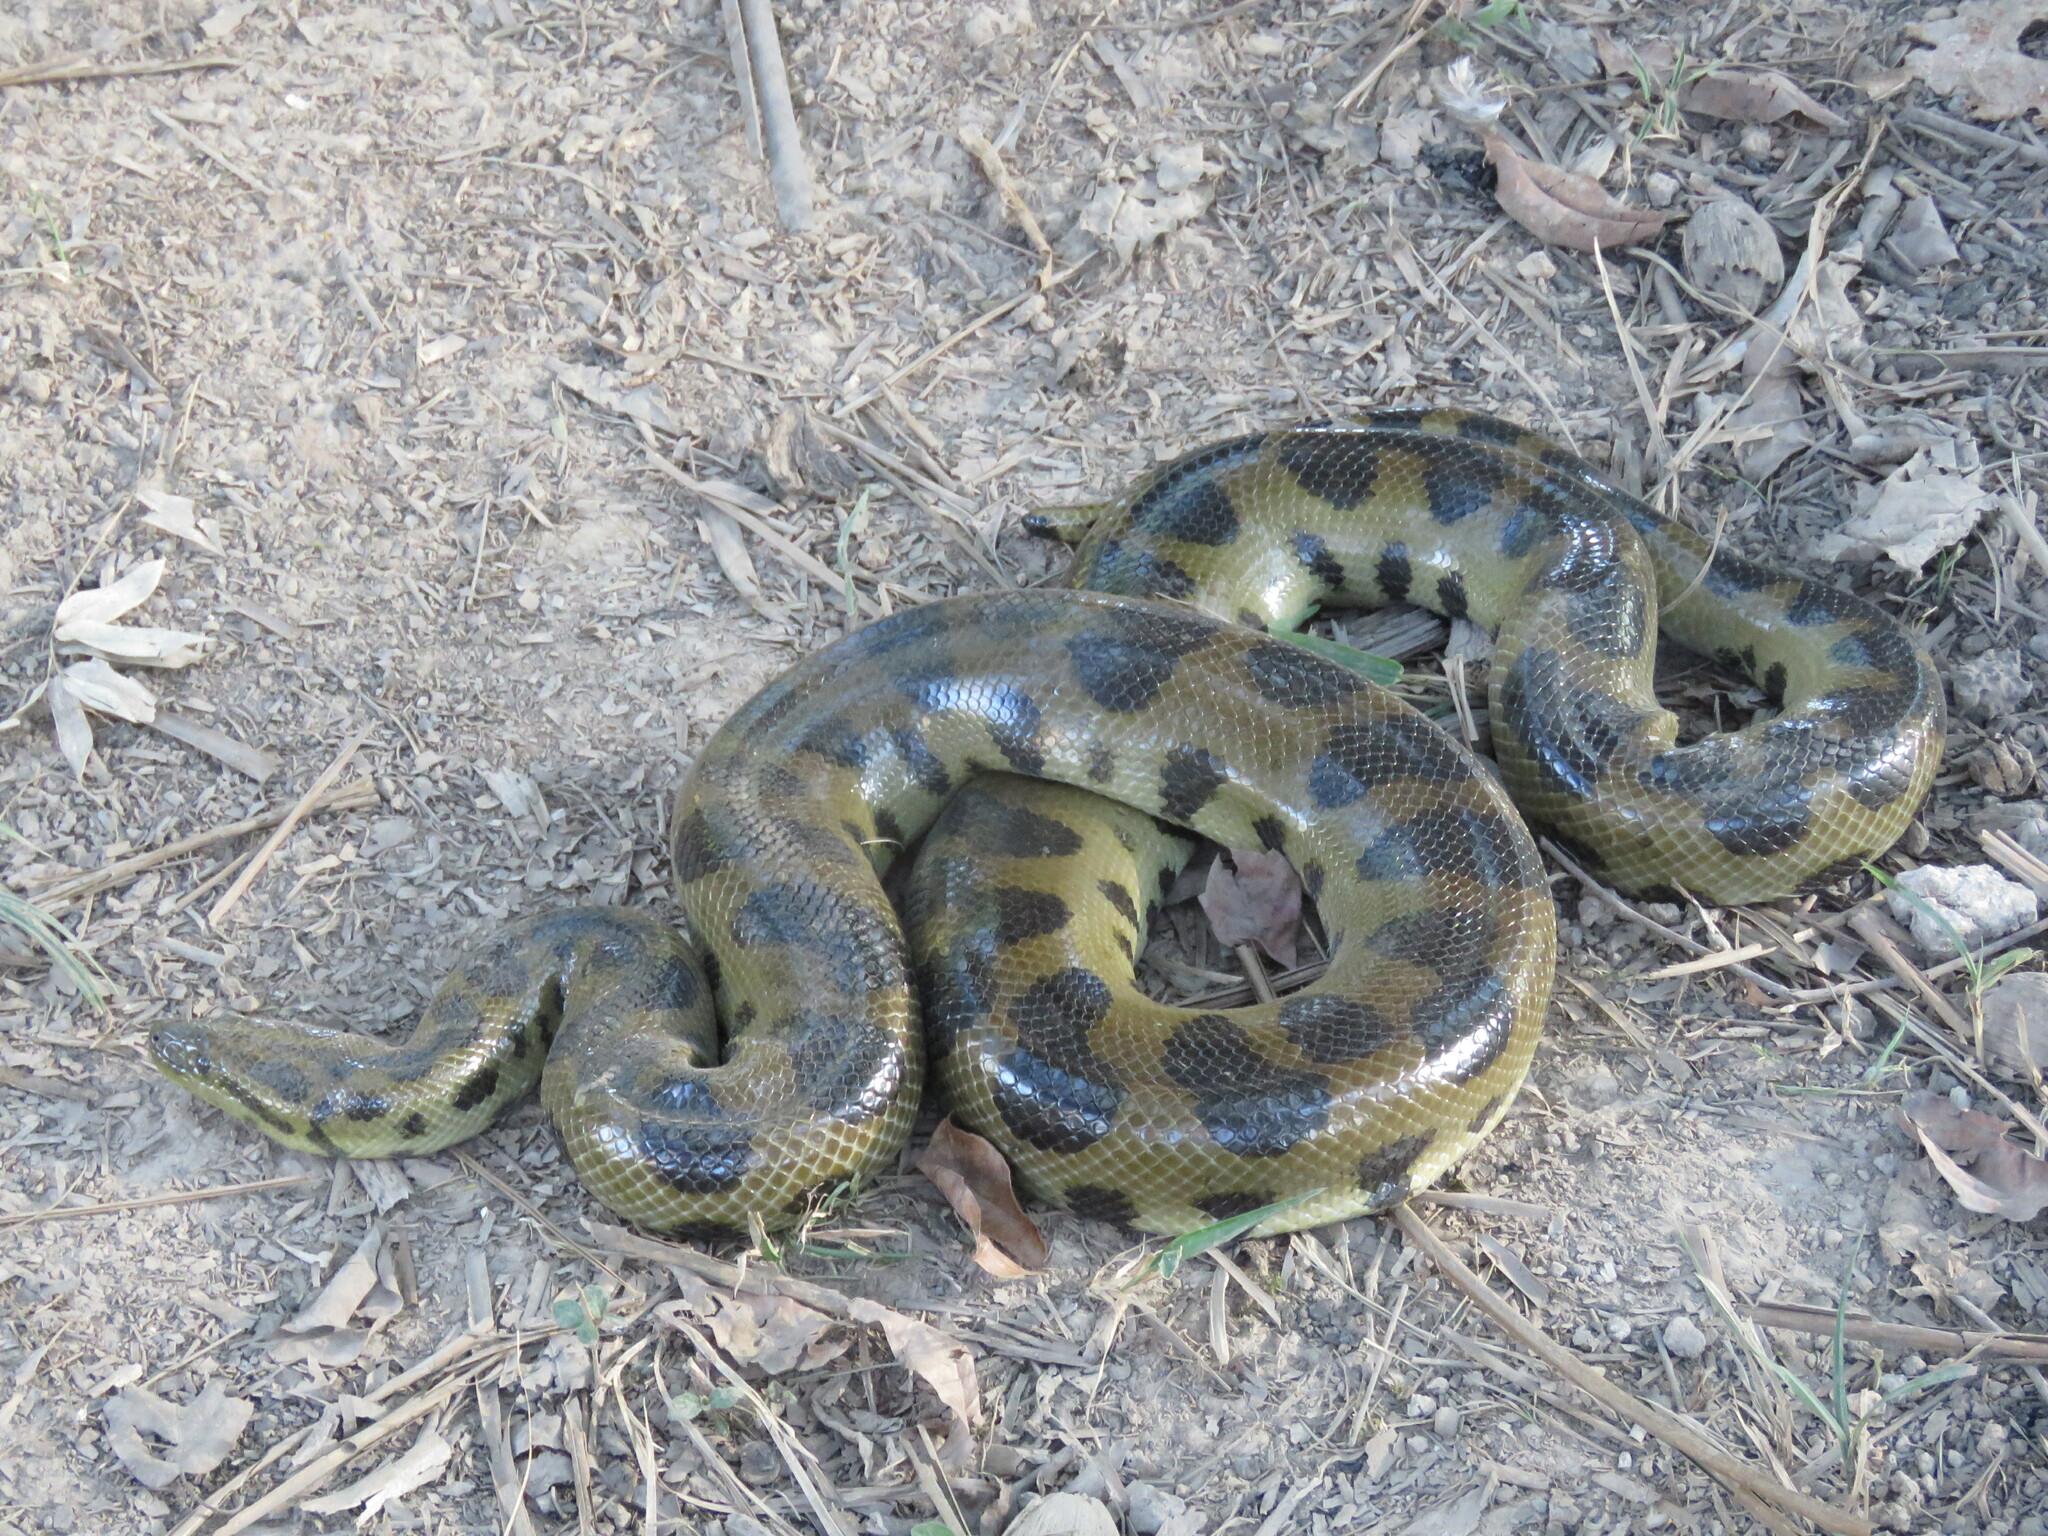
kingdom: Animalia
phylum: Chordata
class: Squamata
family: Boidae
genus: Eunectes
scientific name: Eunectes beniensis
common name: Beni anaconda
